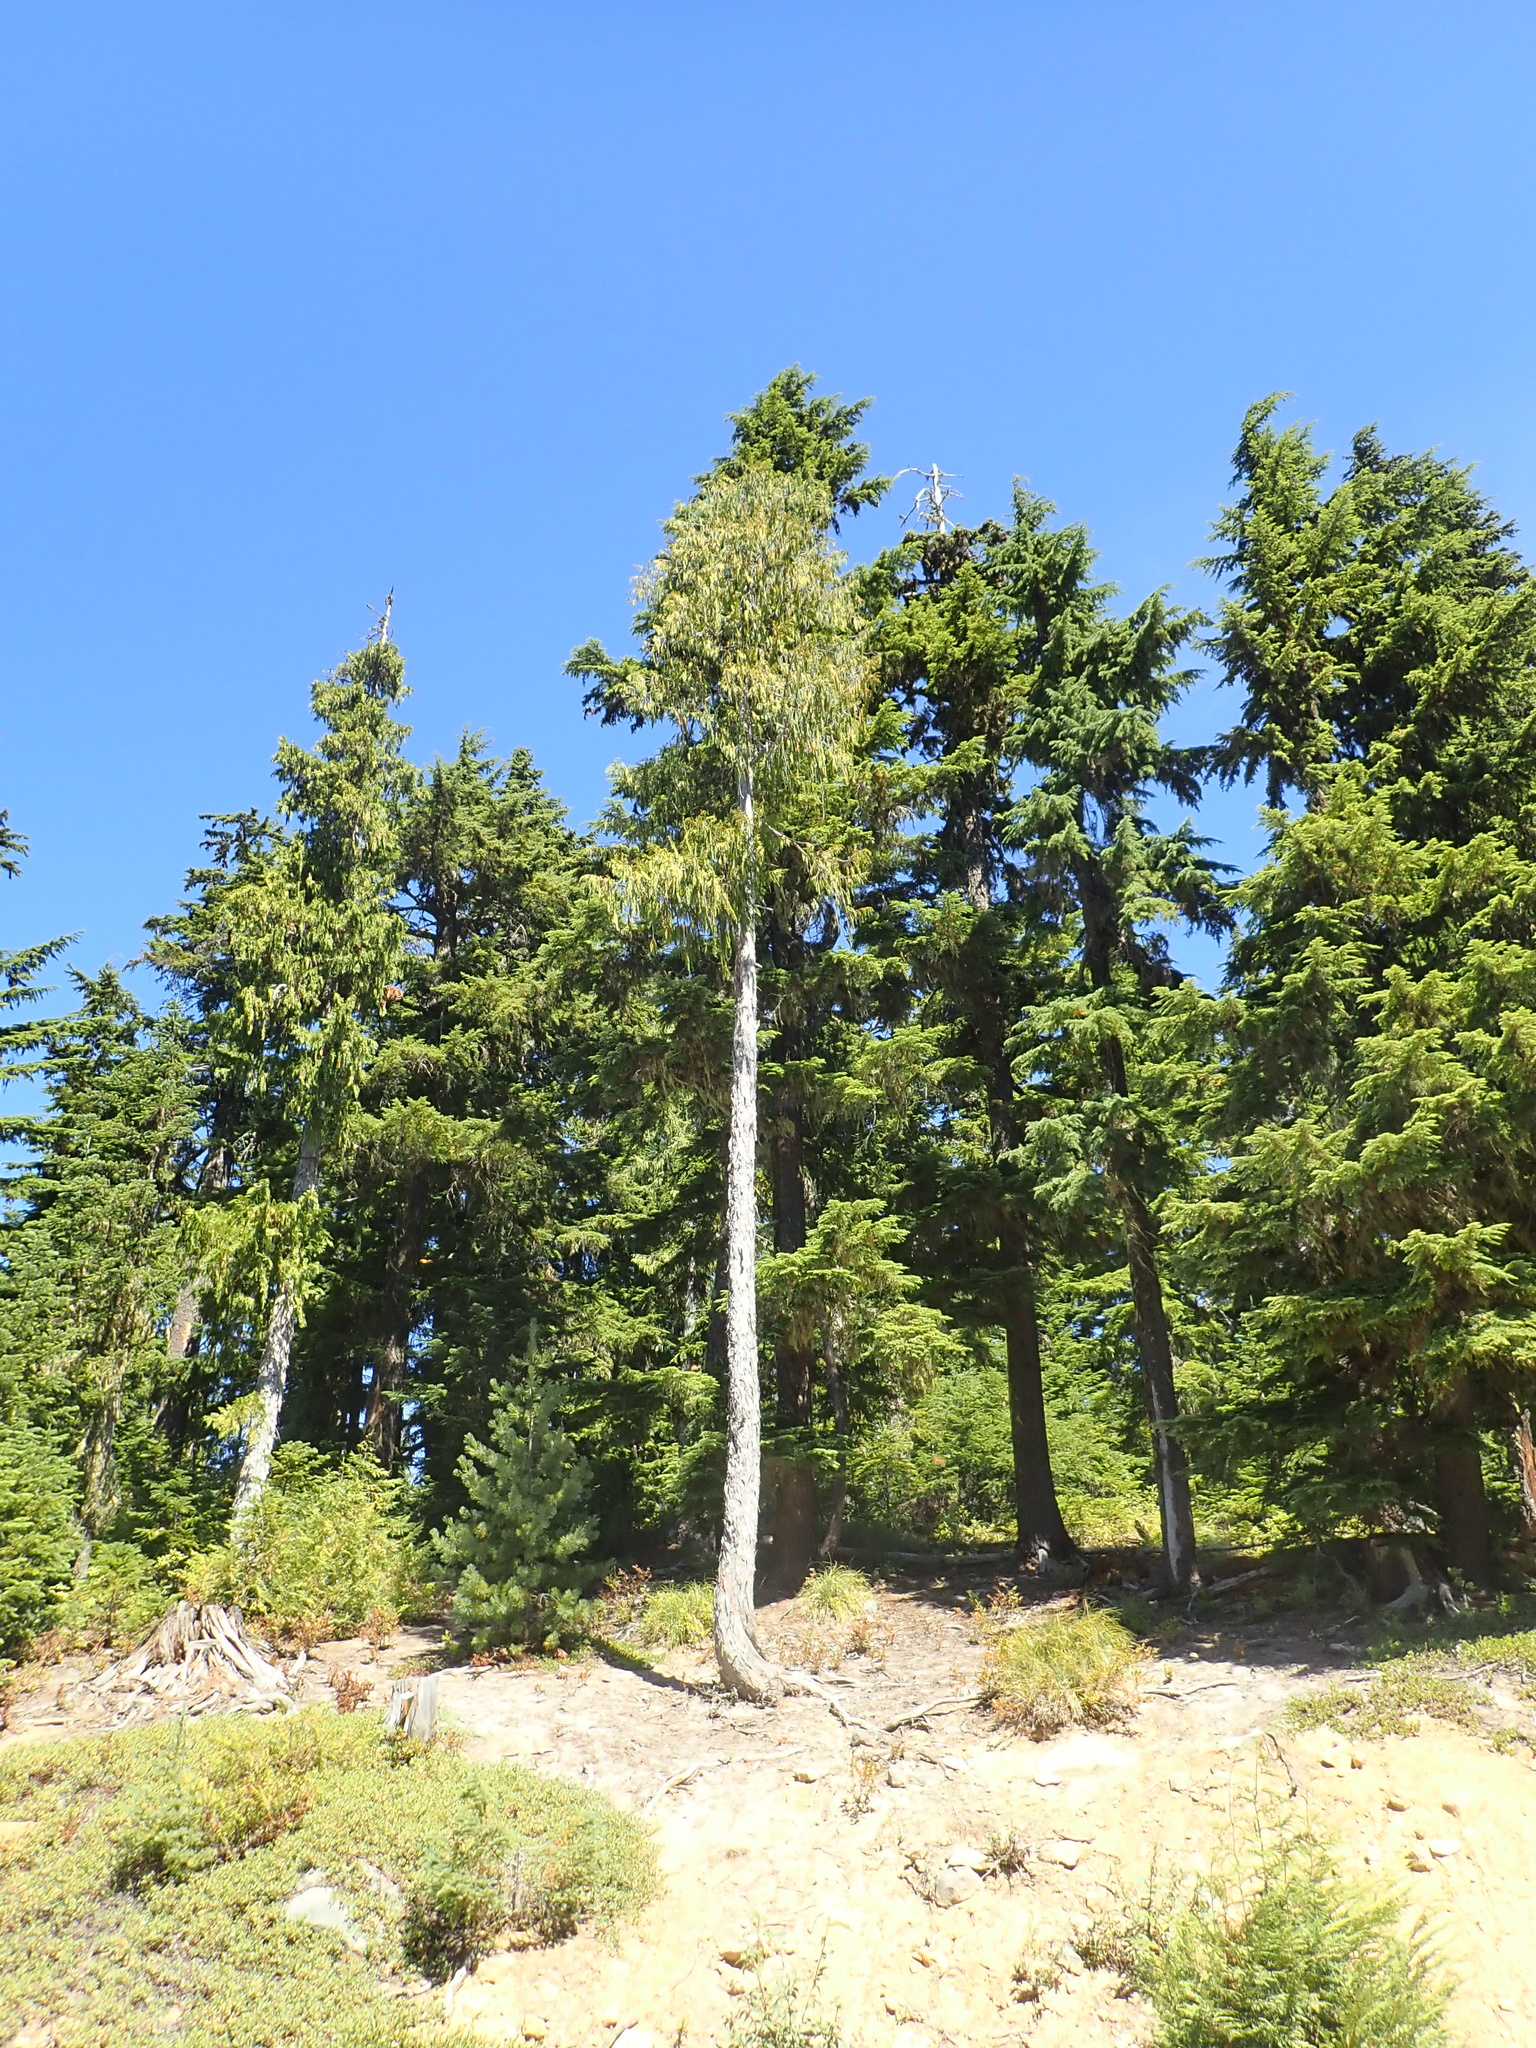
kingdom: Plantae
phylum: Tracheophyta
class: Pinopsida
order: Pinales
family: Cupressaceae
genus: Xanthocyparis
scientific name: Xanthocyparis nootkatensis
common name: Nootka cypress
